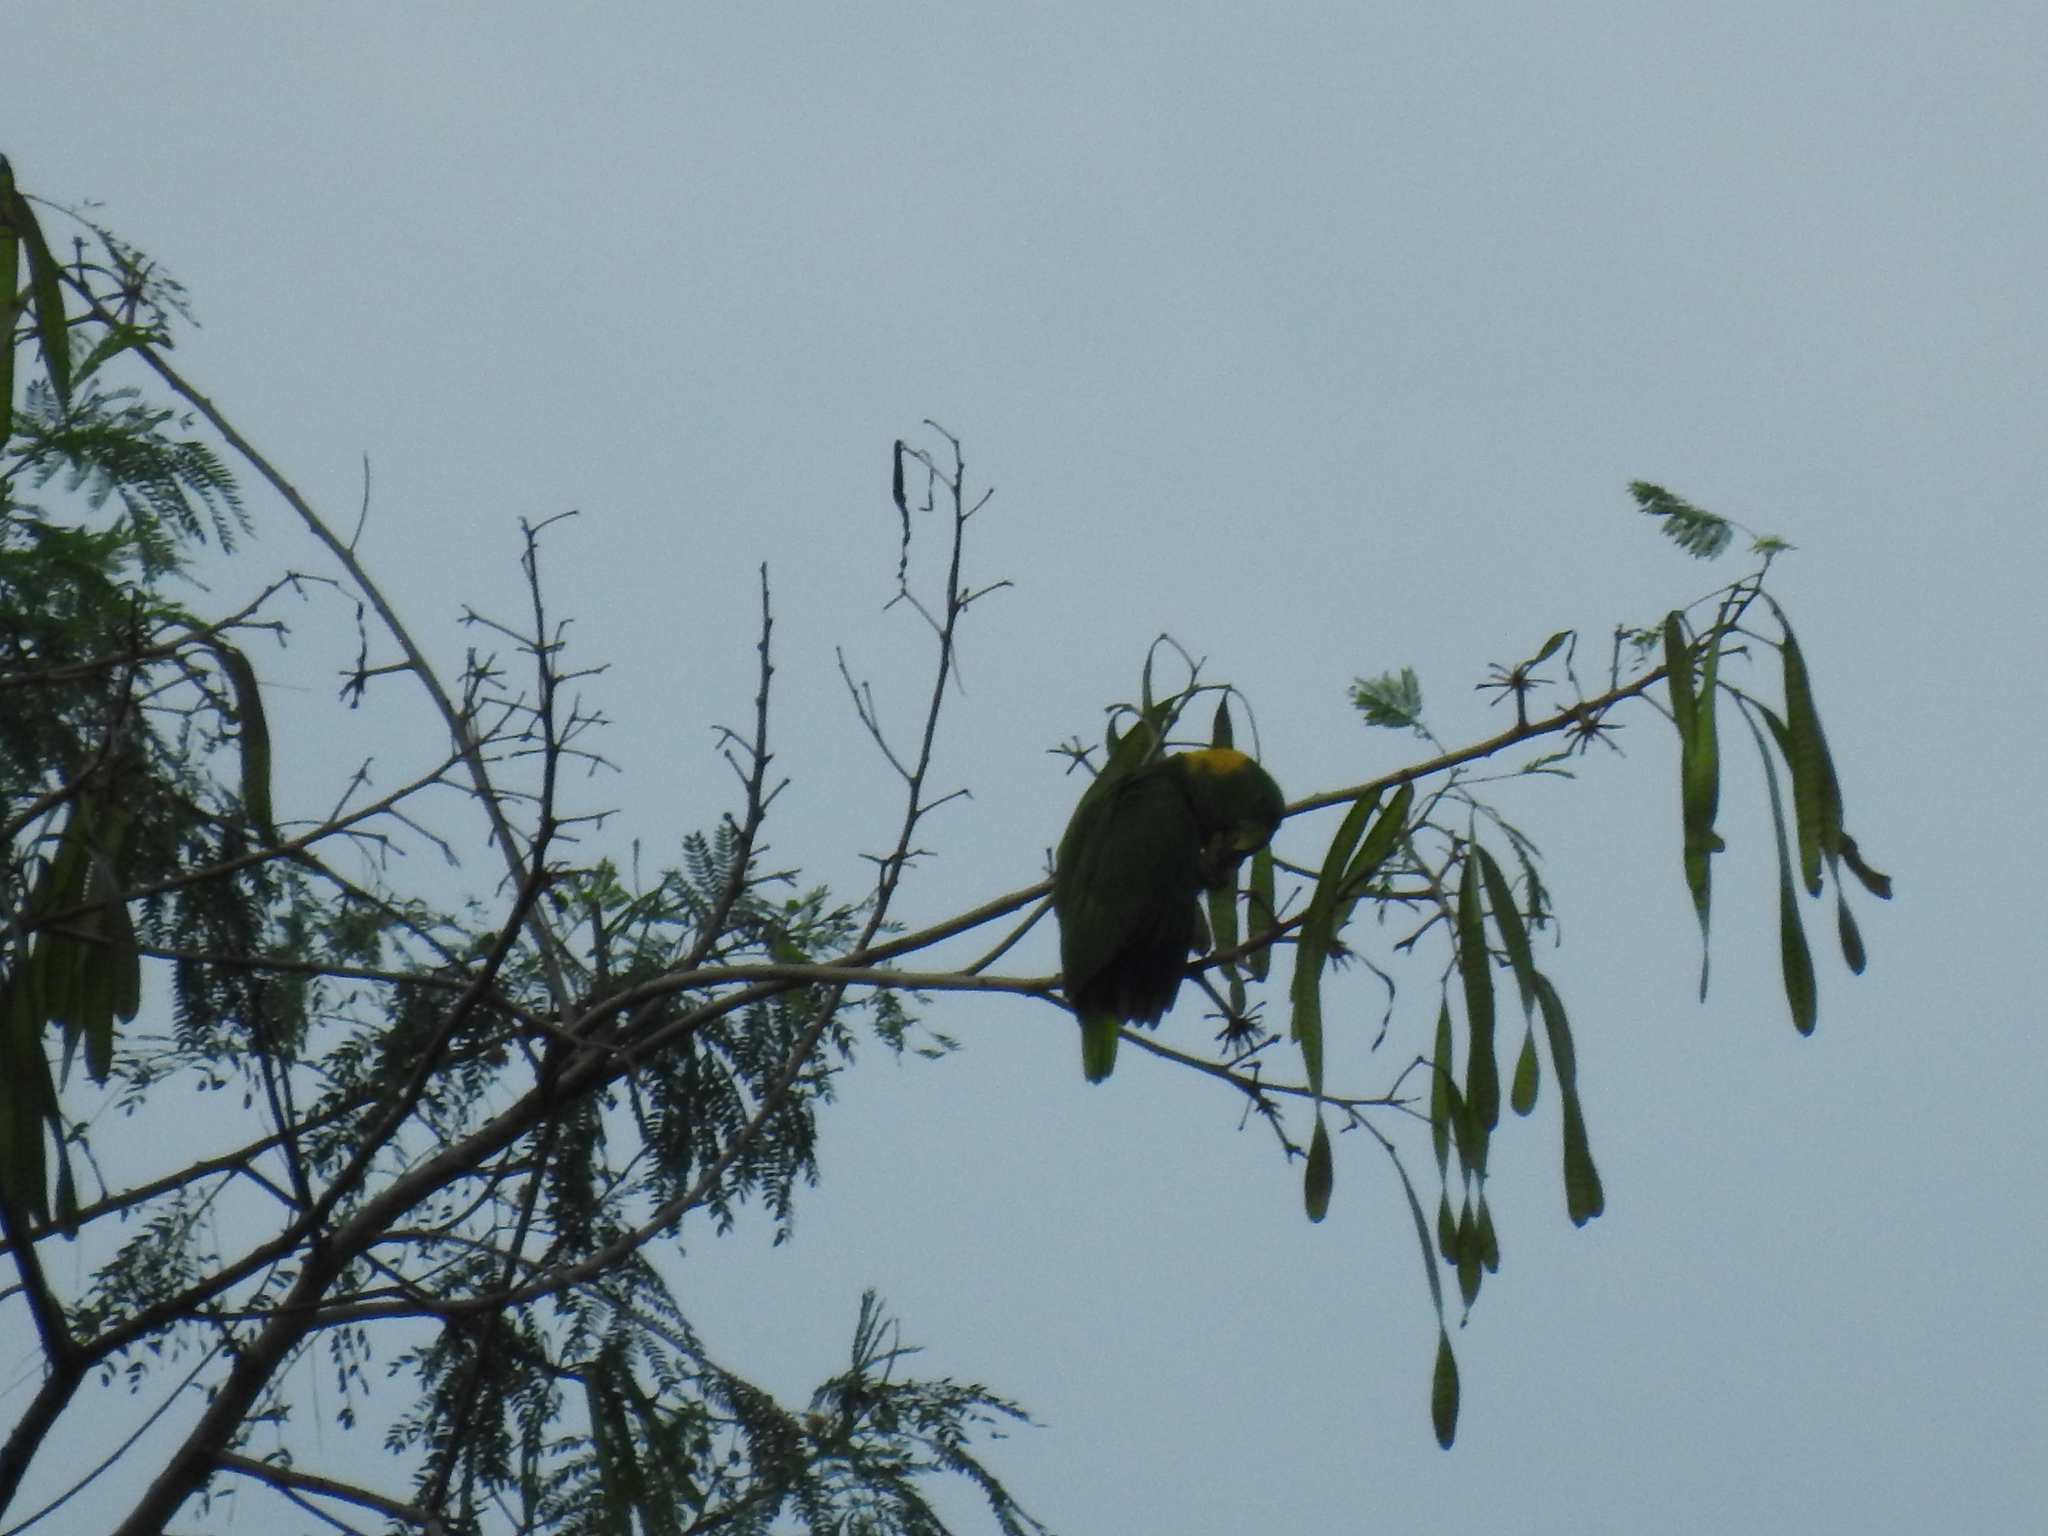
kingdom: Animalia
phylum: Chordata
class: Aves
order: Psittaciformes
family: Psittacidae
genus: Amazona
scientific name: Amazona auropalliata
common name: Yellow-naped amazon
